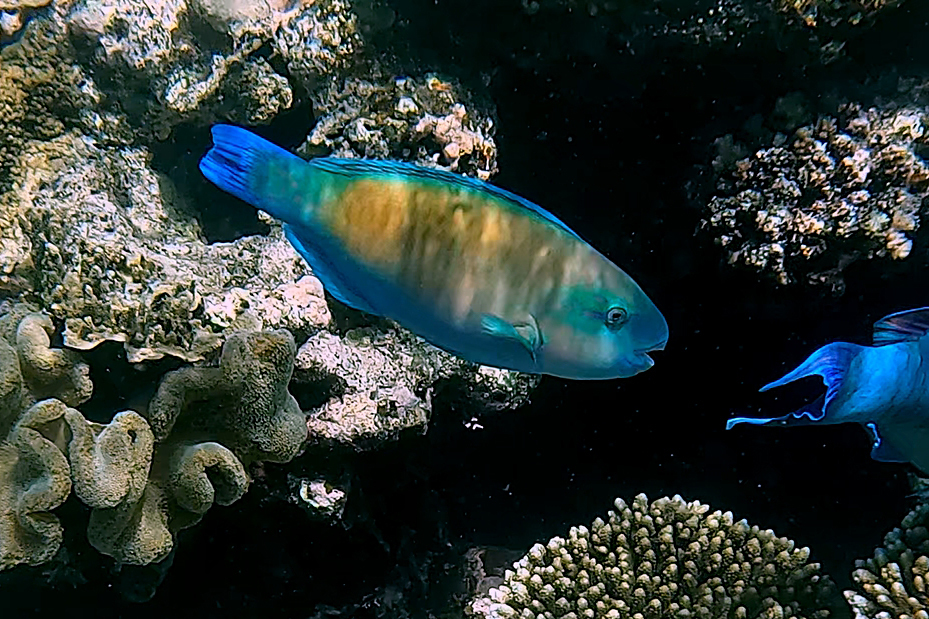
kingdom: Animalia
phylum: Chordata
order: Perciformes
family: Scaridae
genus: Chlorurus
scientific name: Chlorurus spilurus
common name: Bullethead parrotfish
